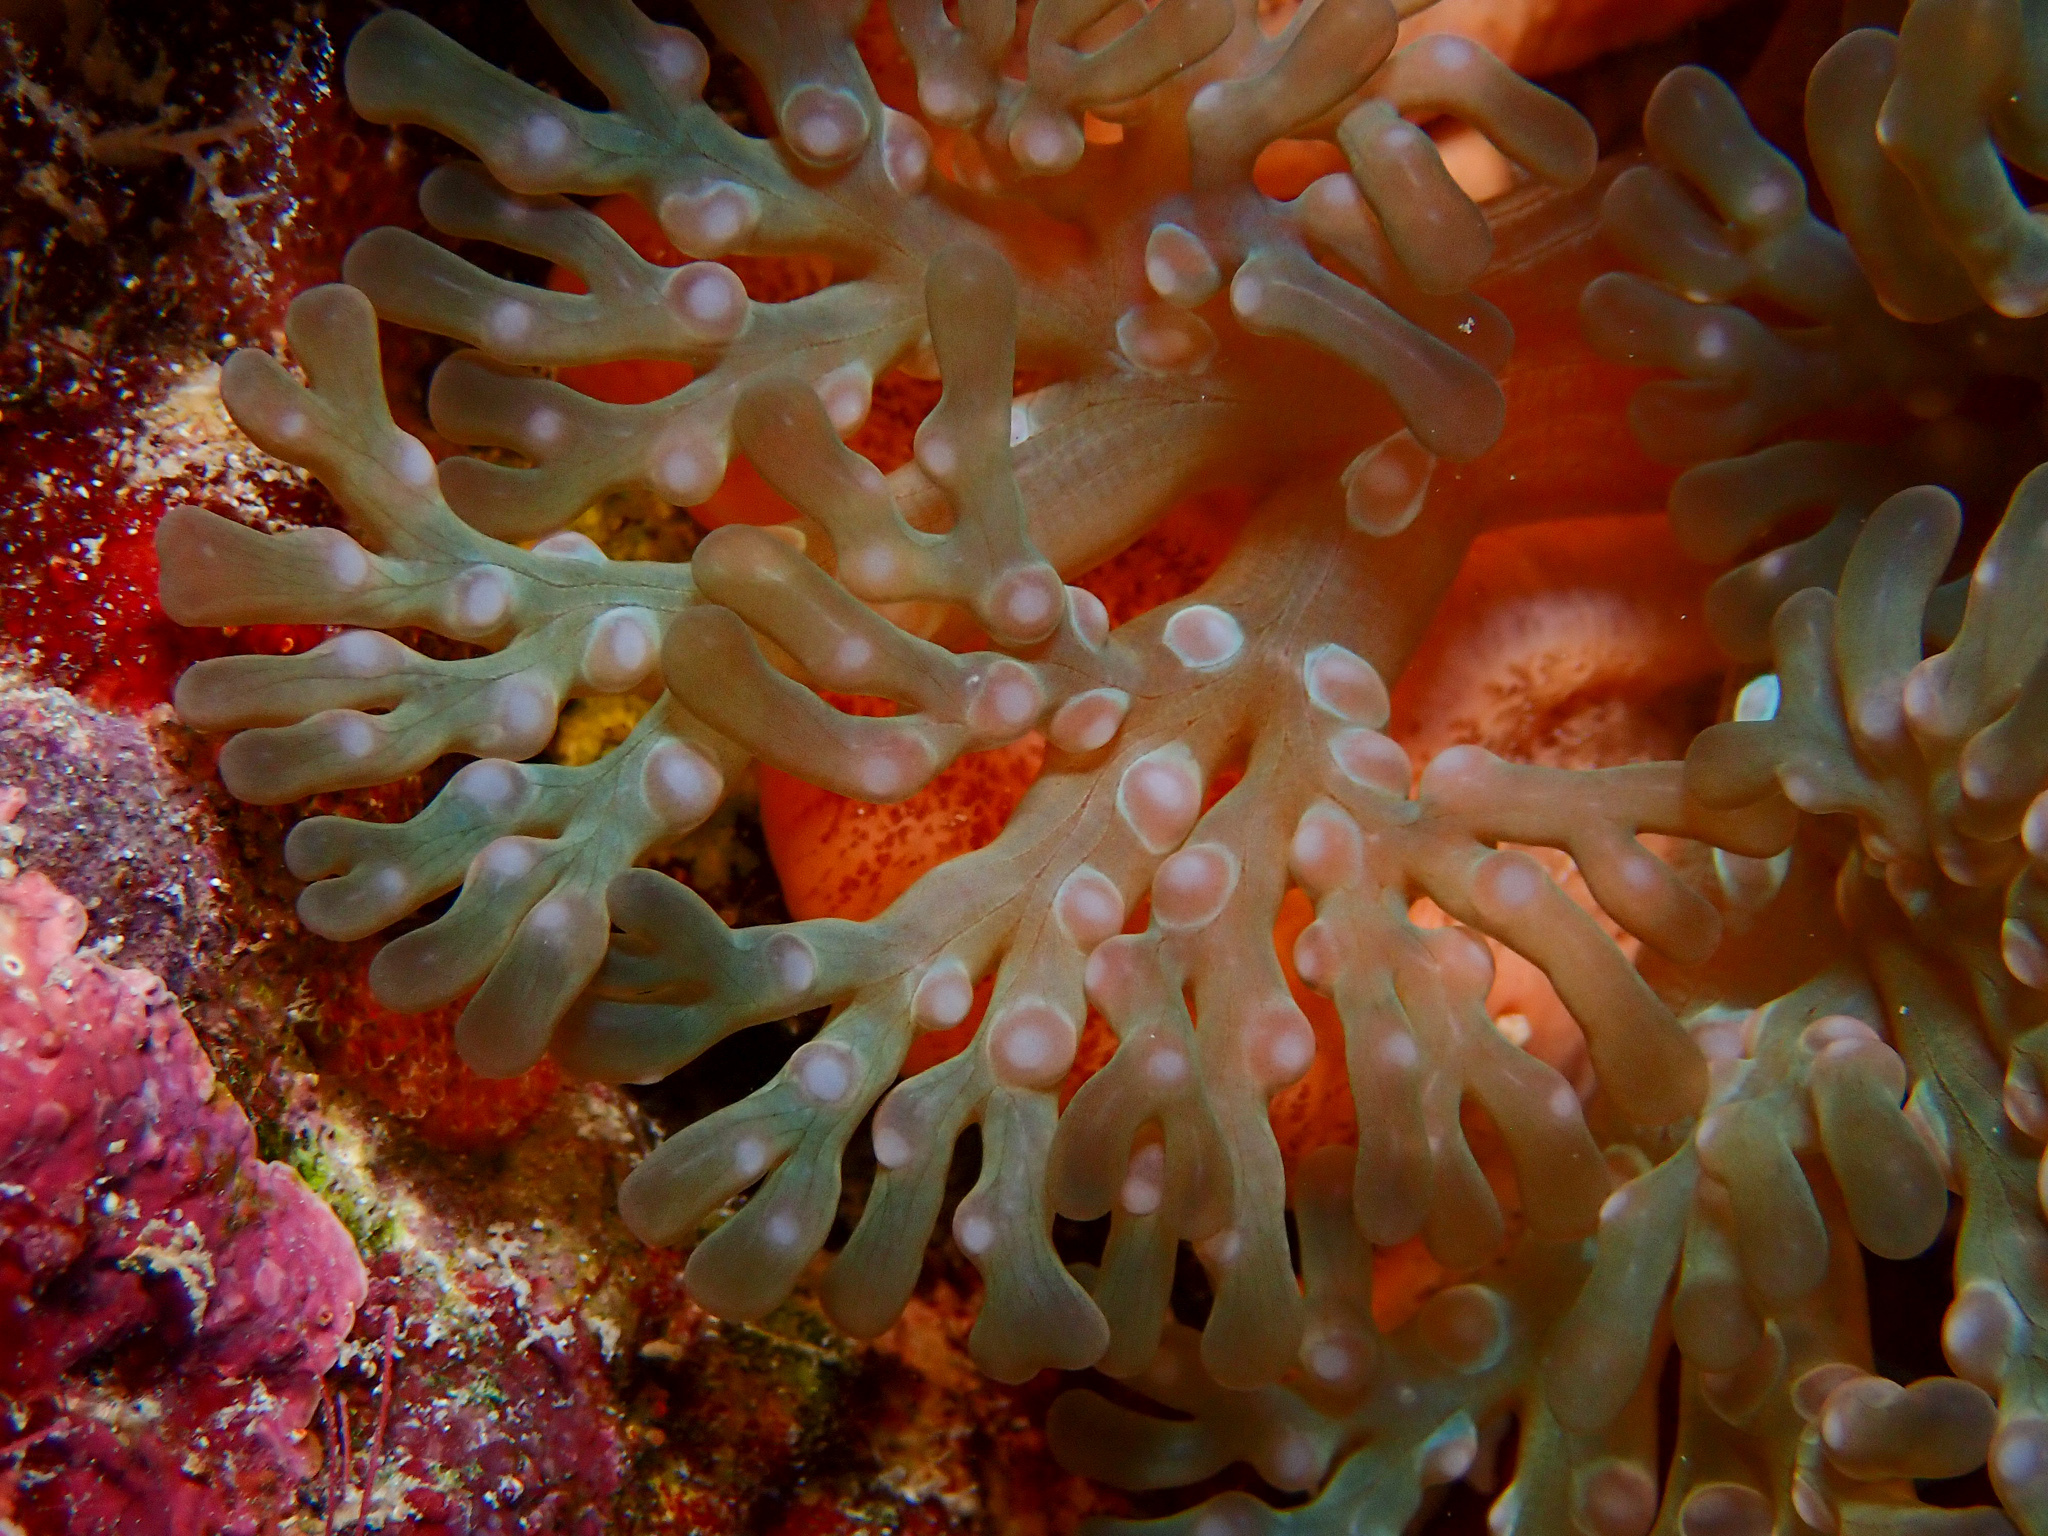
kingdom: Animalia
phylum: Cnidaria
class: Anthozoa
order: Actiniaria
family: Aliciidae
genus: Lebrunia
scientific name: Lebrunia neglecta
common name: Branching anemone
